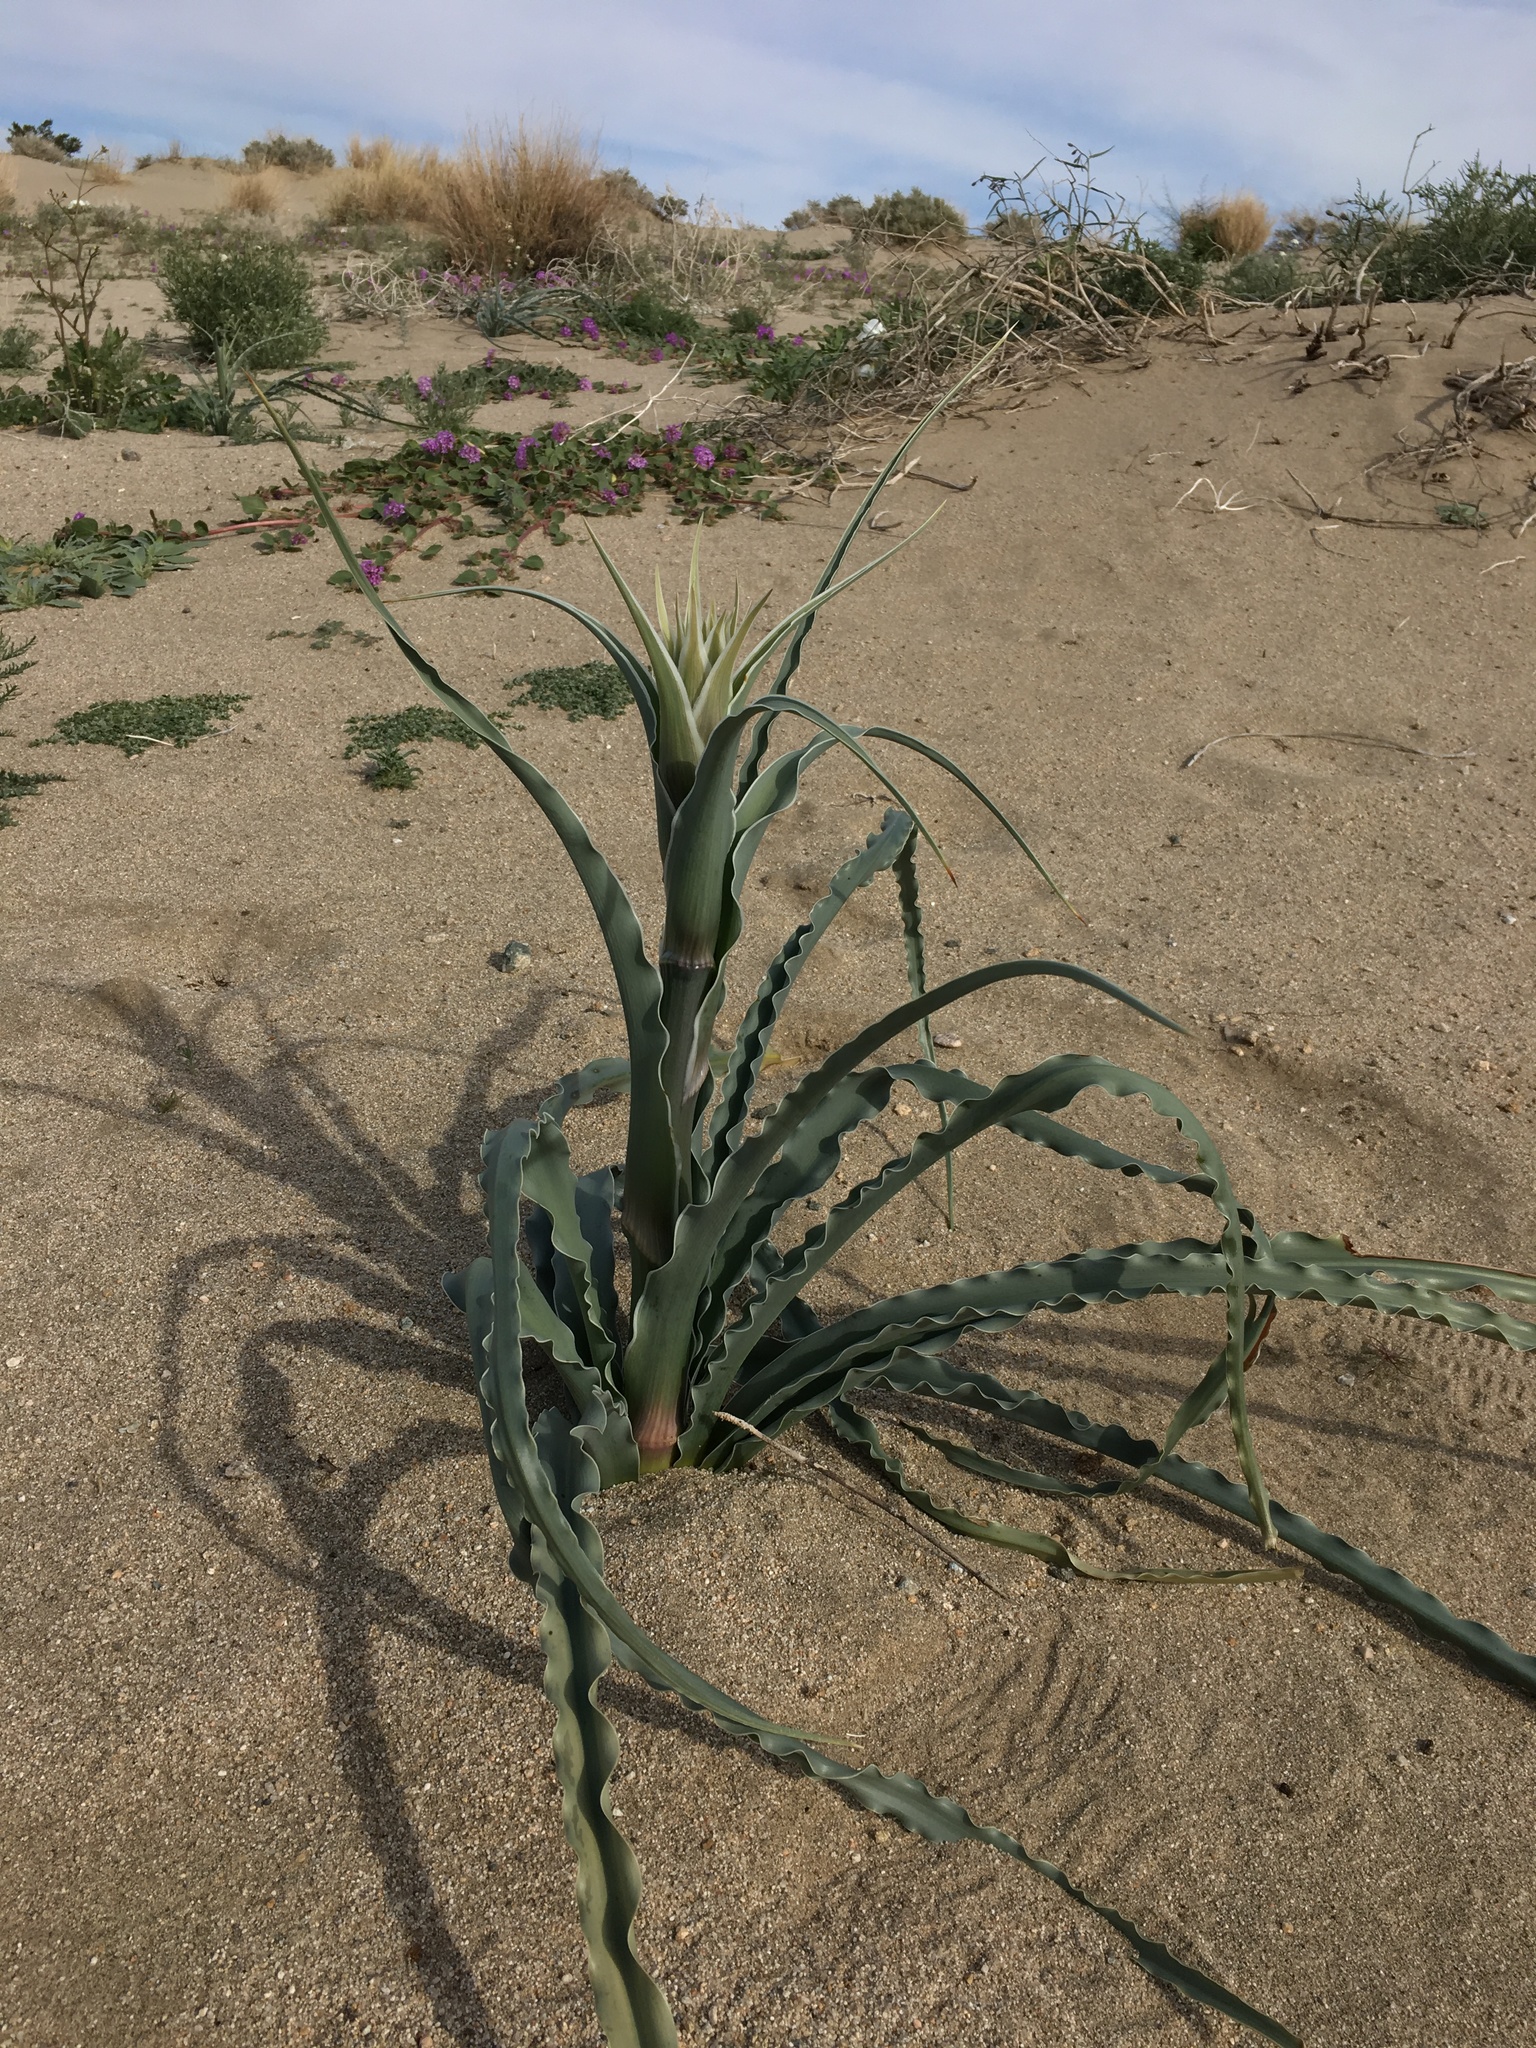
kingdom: Plantae
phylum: Tracheophyta
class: Liliopsida
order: Asparagales
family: Asparagaceae
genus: Hesperocallis
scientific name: Hesperocallis undulata
